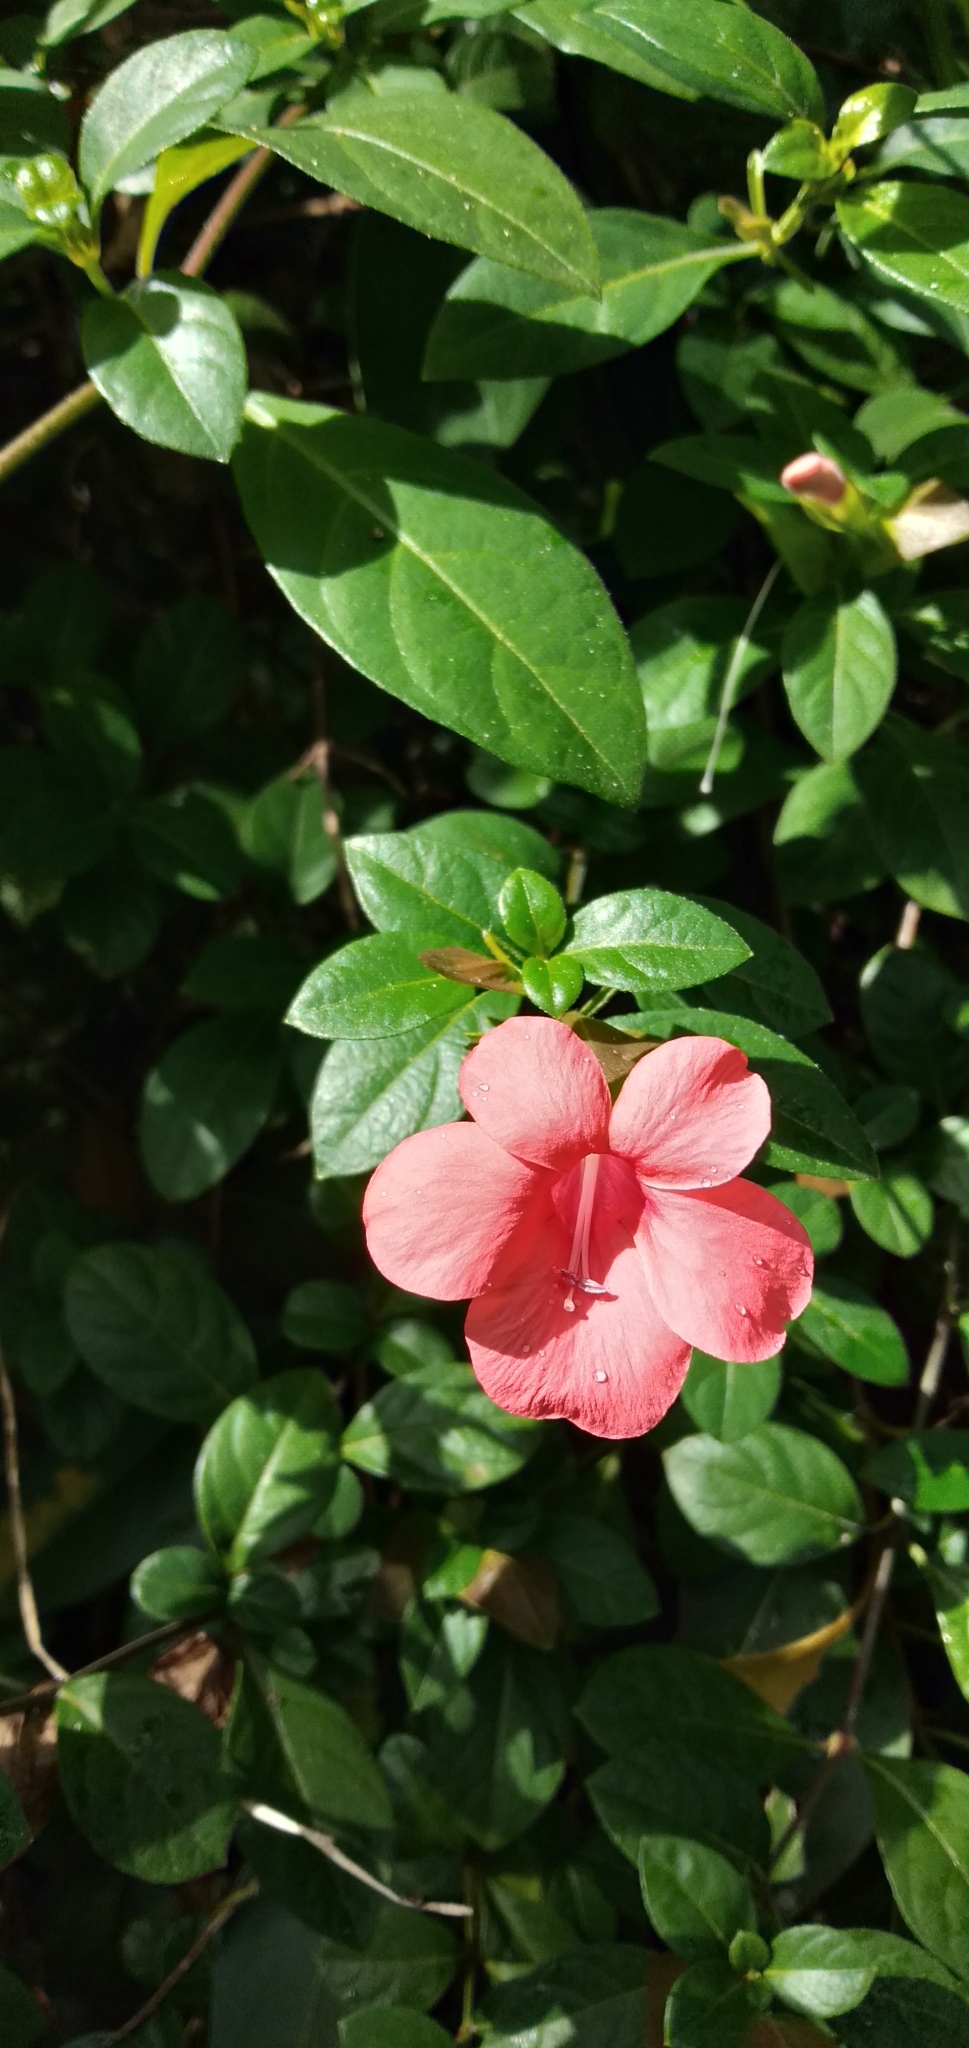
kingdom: Plantae
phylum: Tracheophyta
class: Magnoliopsida
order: Lamiales
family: Acanthaceae
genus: Barleria
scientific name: Barleria repens
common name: Pink-ruellia
